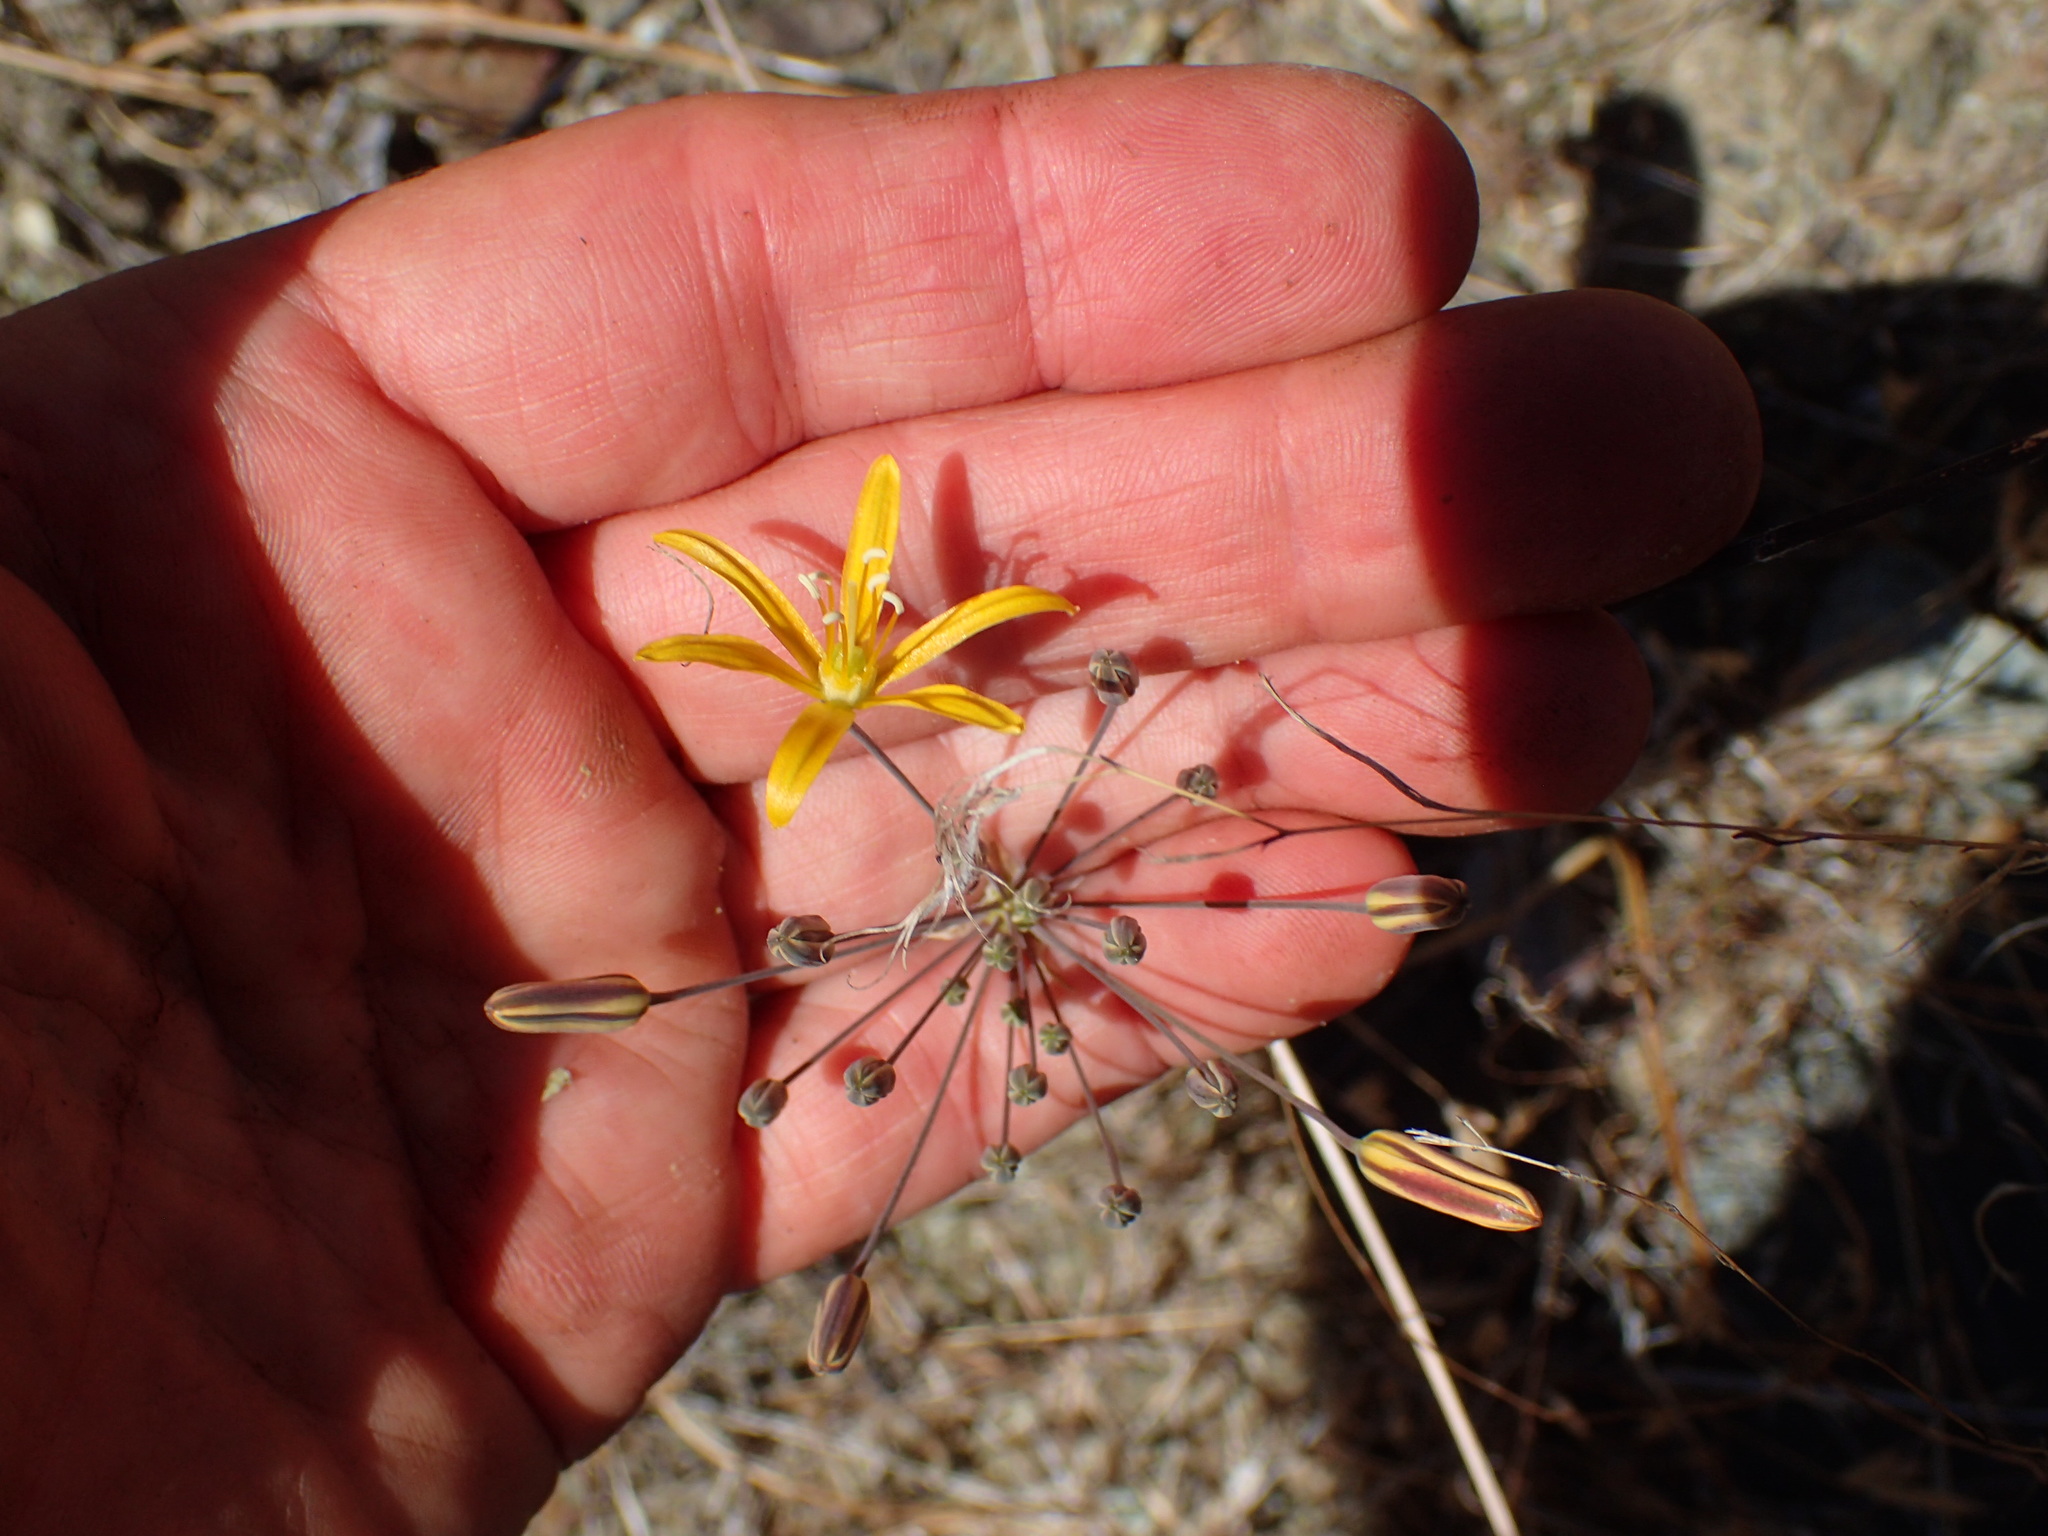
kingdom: Plantae
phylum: Tracheophyta
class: Liliopsida
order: Asparagales
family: Asparagaceae
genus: Bloomeria
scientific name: Bloomeria crocea
